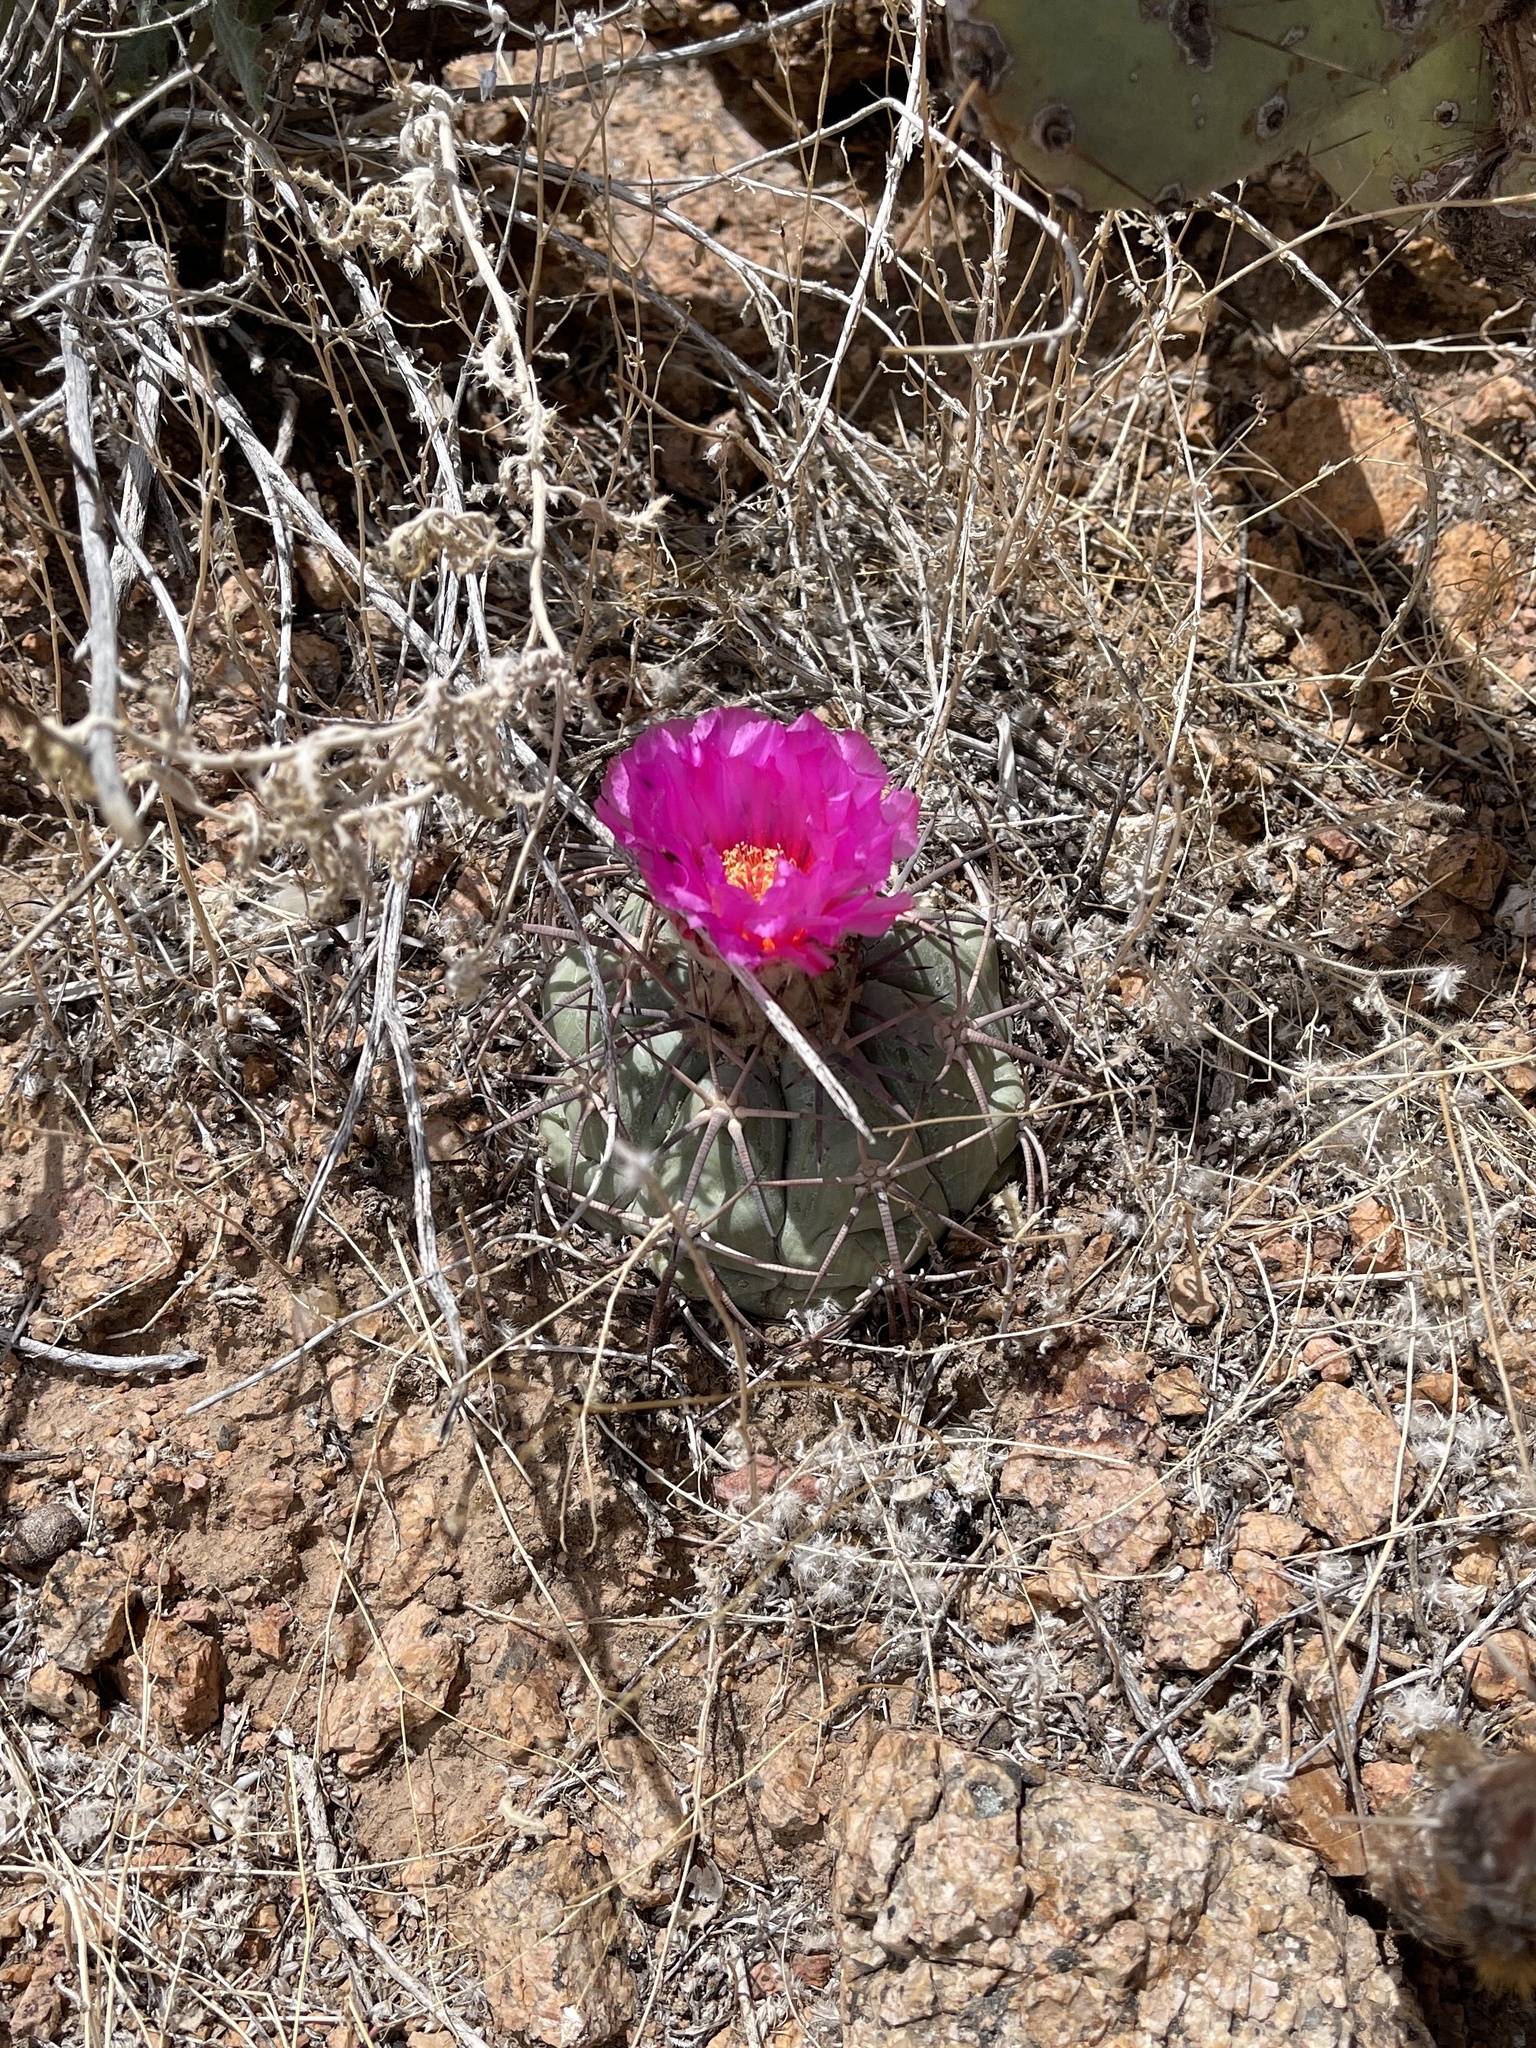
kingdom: Plantae
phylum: Tracheophyta
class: Magnoliopsida
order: Caryophyllales
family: Cactaceae
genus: Echinocactus
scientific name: Echinocactus horizonthalonius
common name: Devilshead
